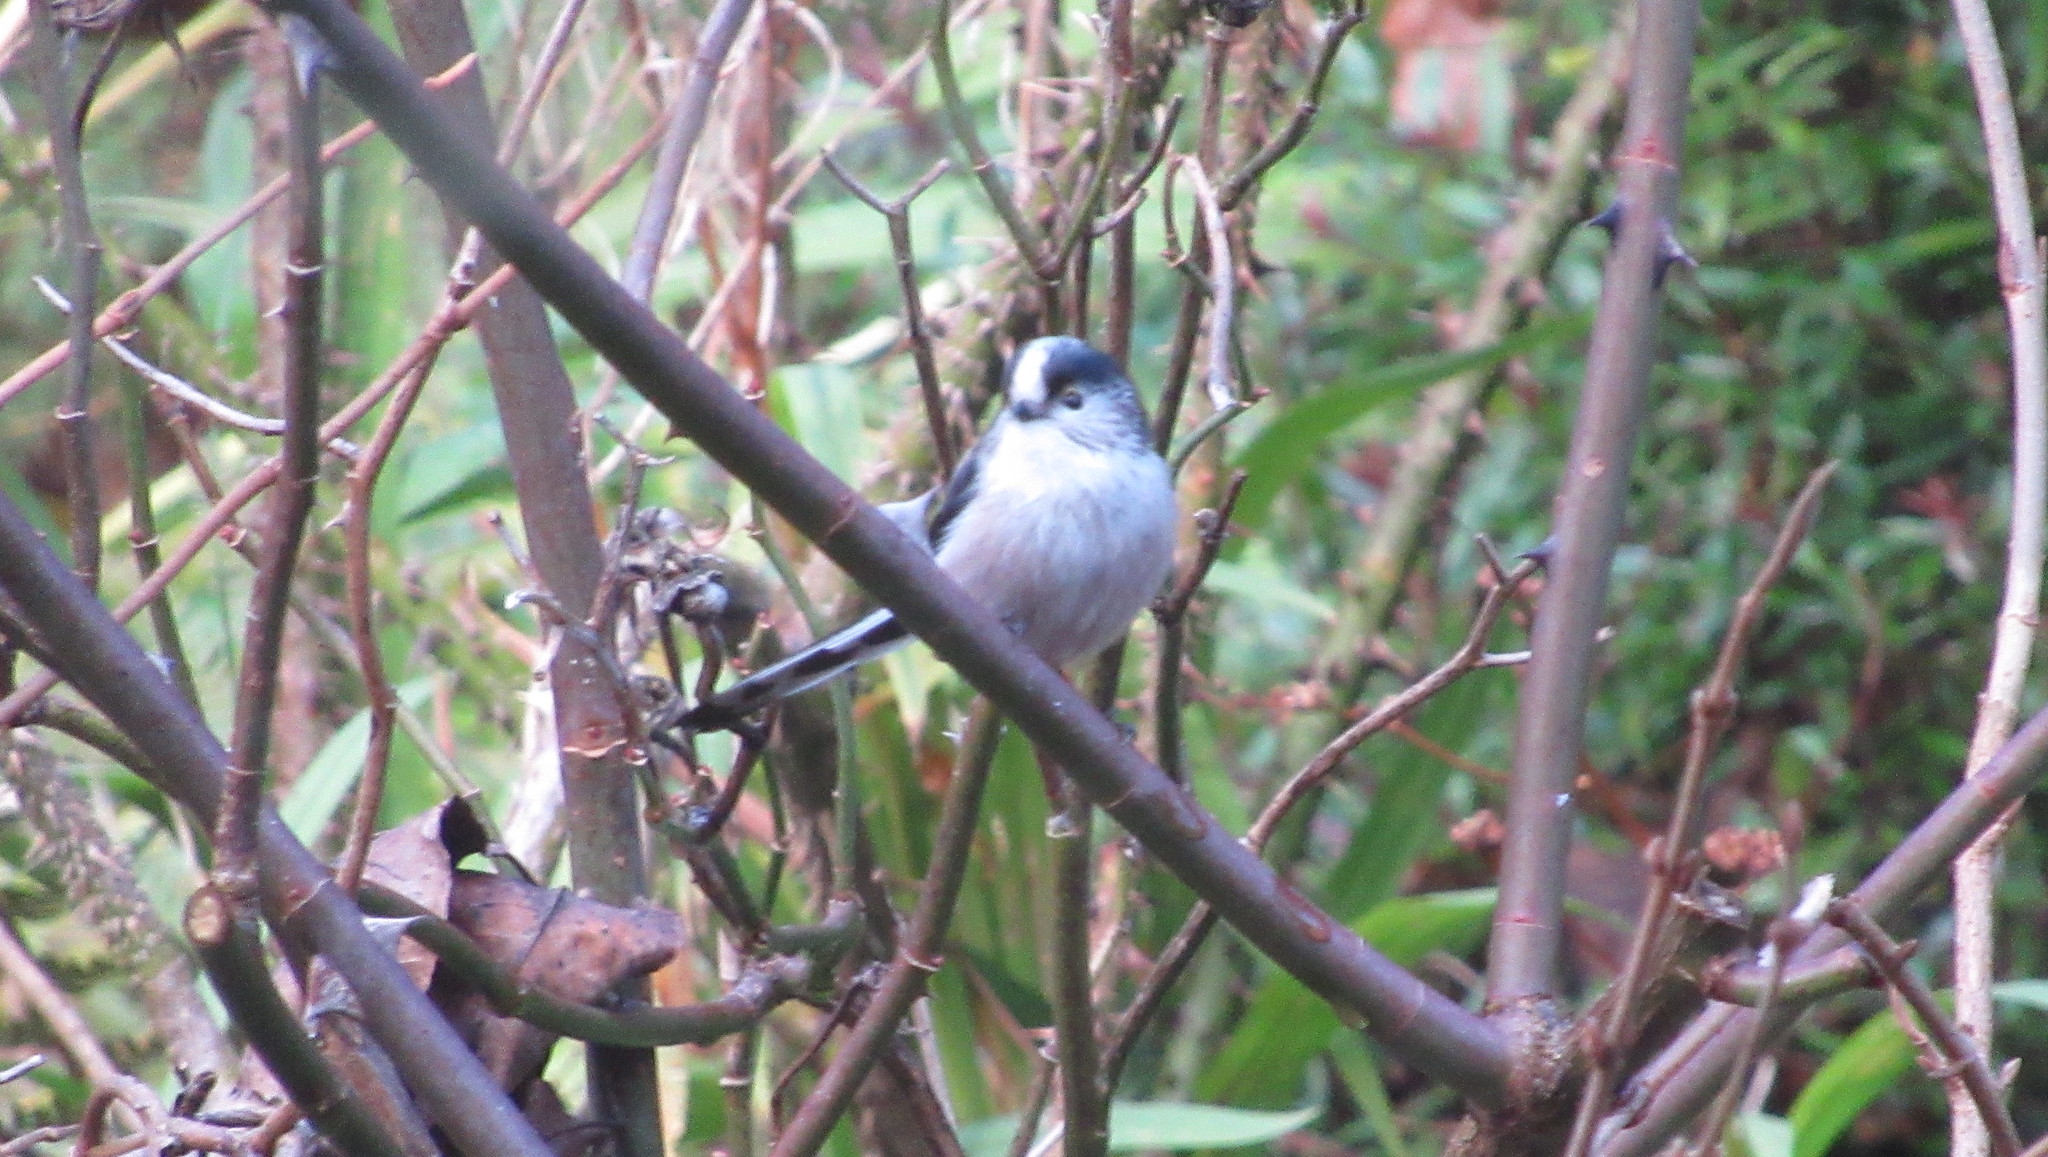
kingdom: Animalia
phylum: Chordata
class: Aves
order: Passeriformes
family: Aegithalidae
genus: Aegithalos
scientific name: Aegithalos caudatus
